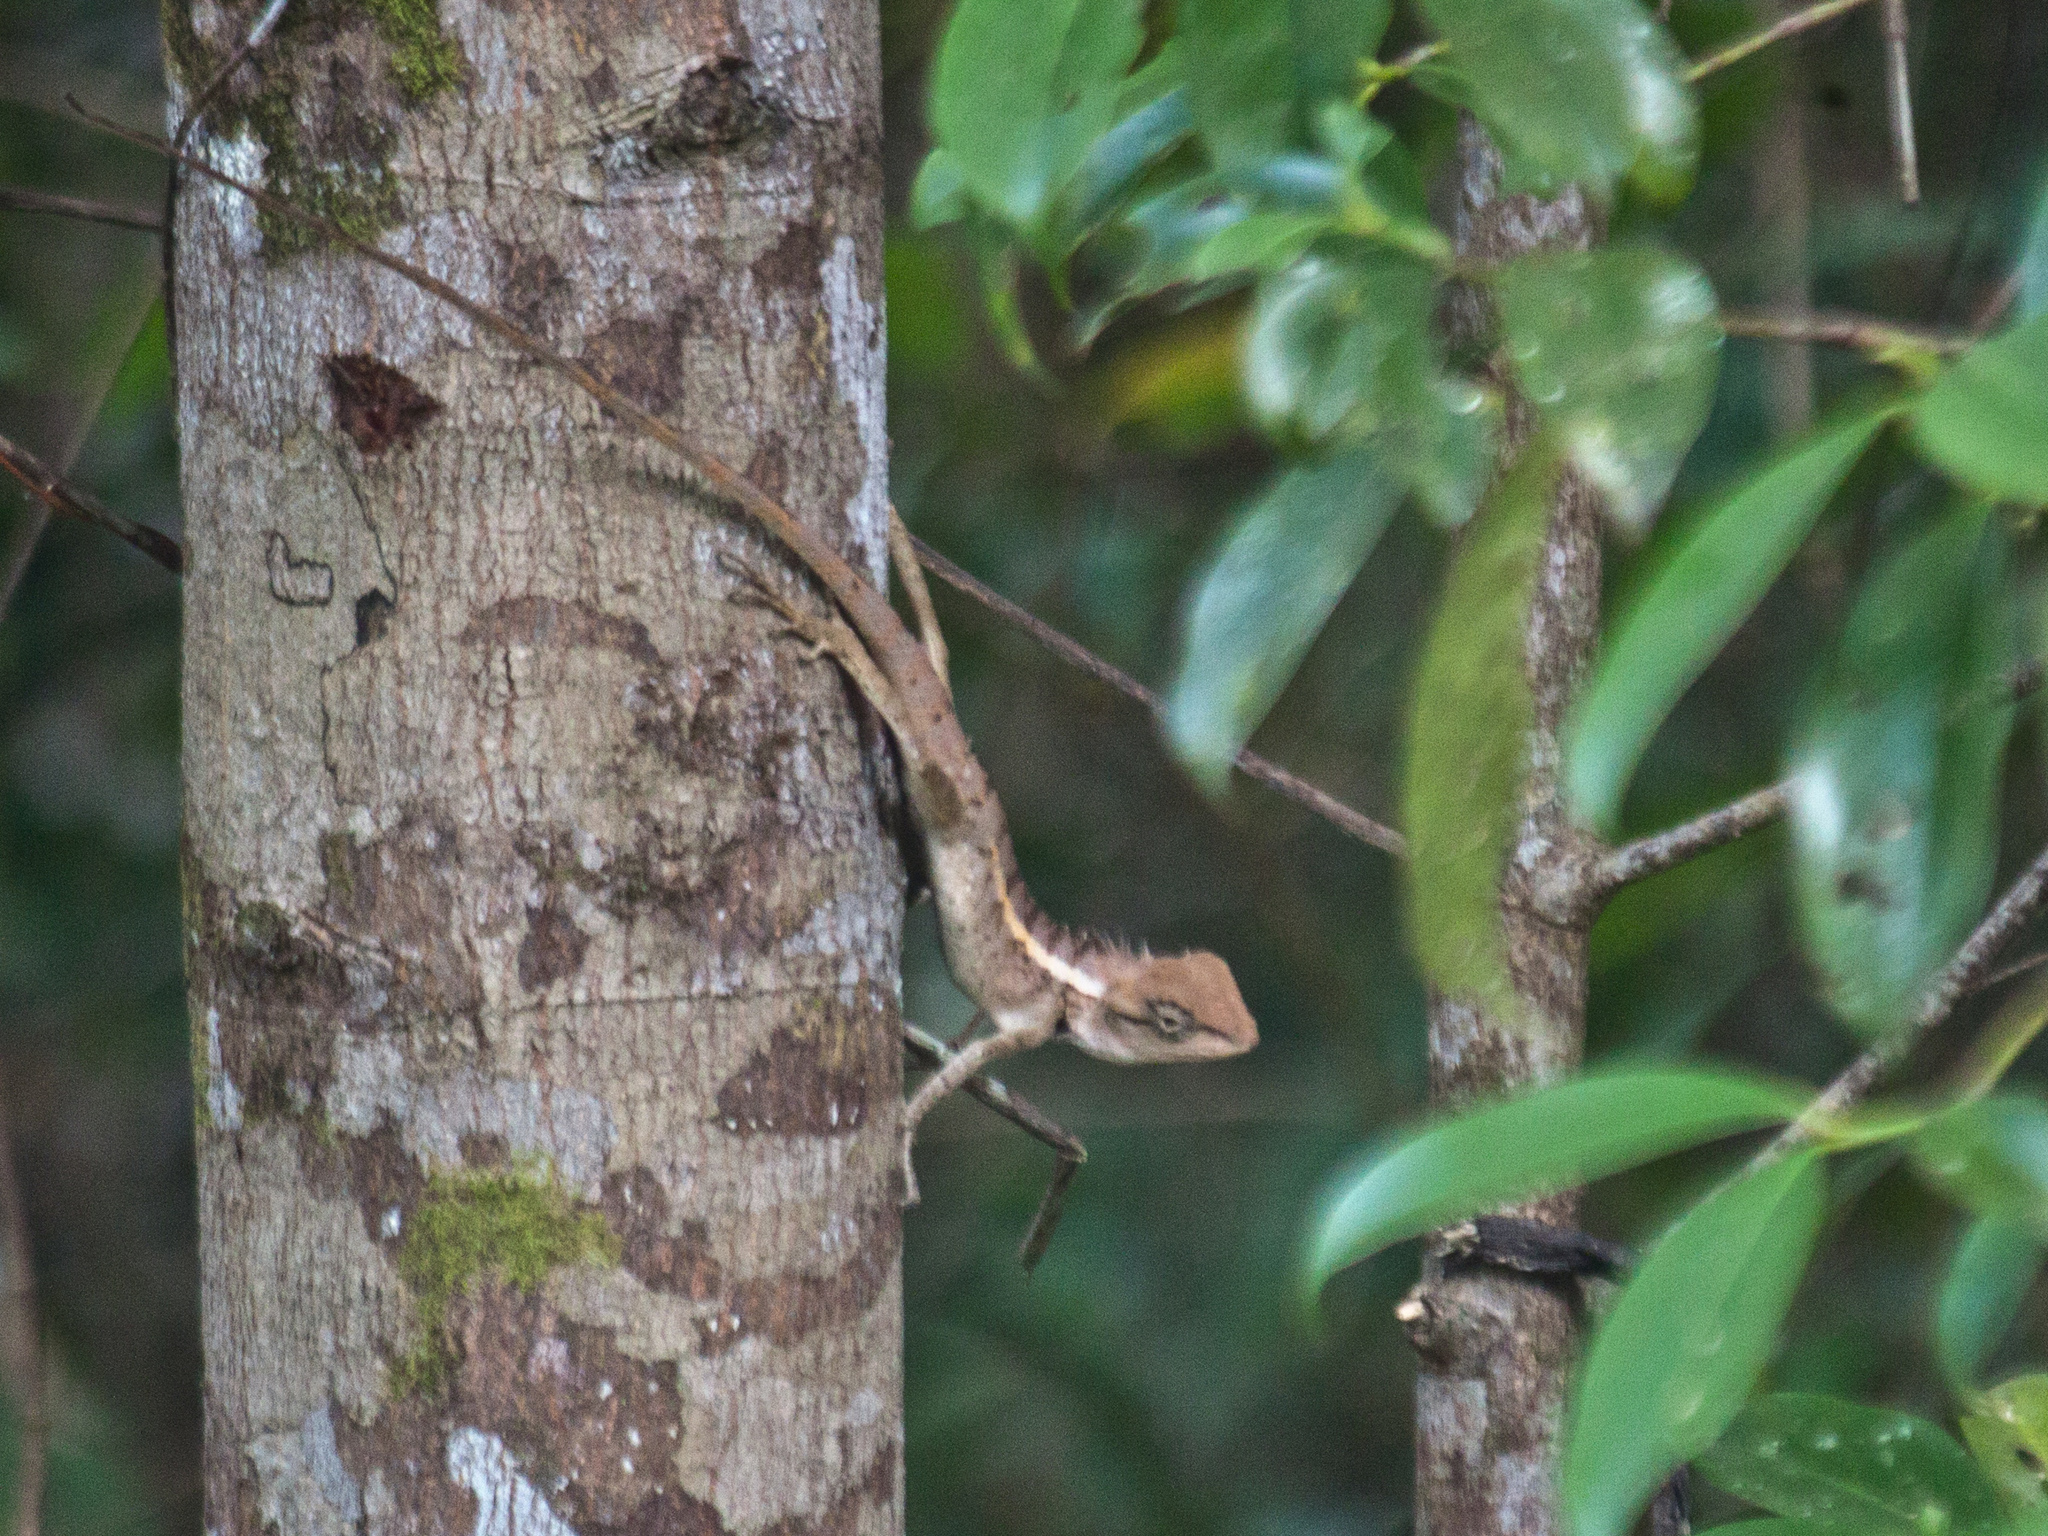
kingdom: Animalia
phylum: Chordata
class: Squamata
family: Agamidae
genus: Calotes
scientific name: Calotes emma
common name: Thailand bloodsucker
